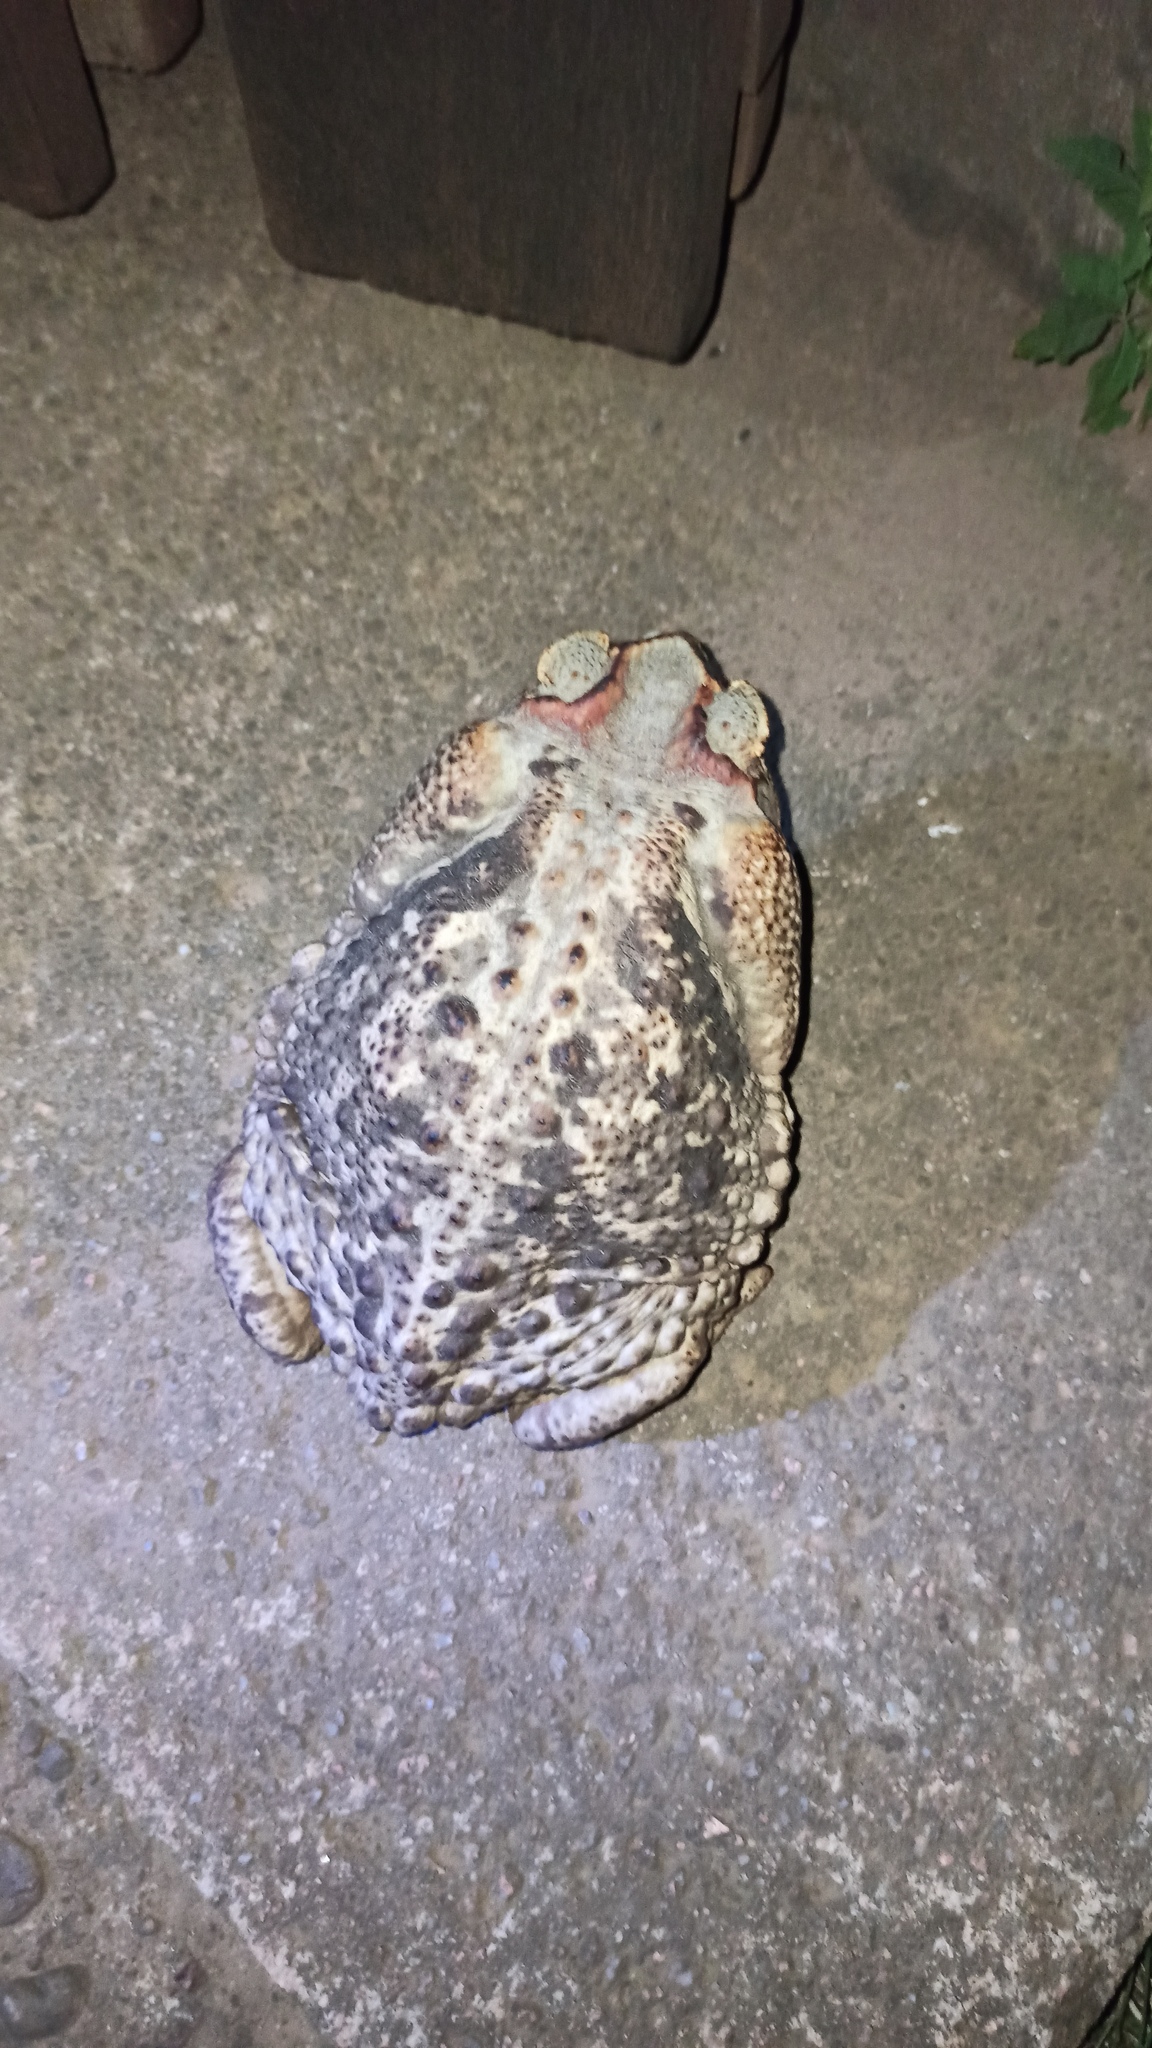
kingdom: Animalia
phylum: Chordata
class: Amphibia
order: Anura
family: Bufonidae
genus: Rhinella
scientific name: Rhinella diptycha
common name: Cope's toad
